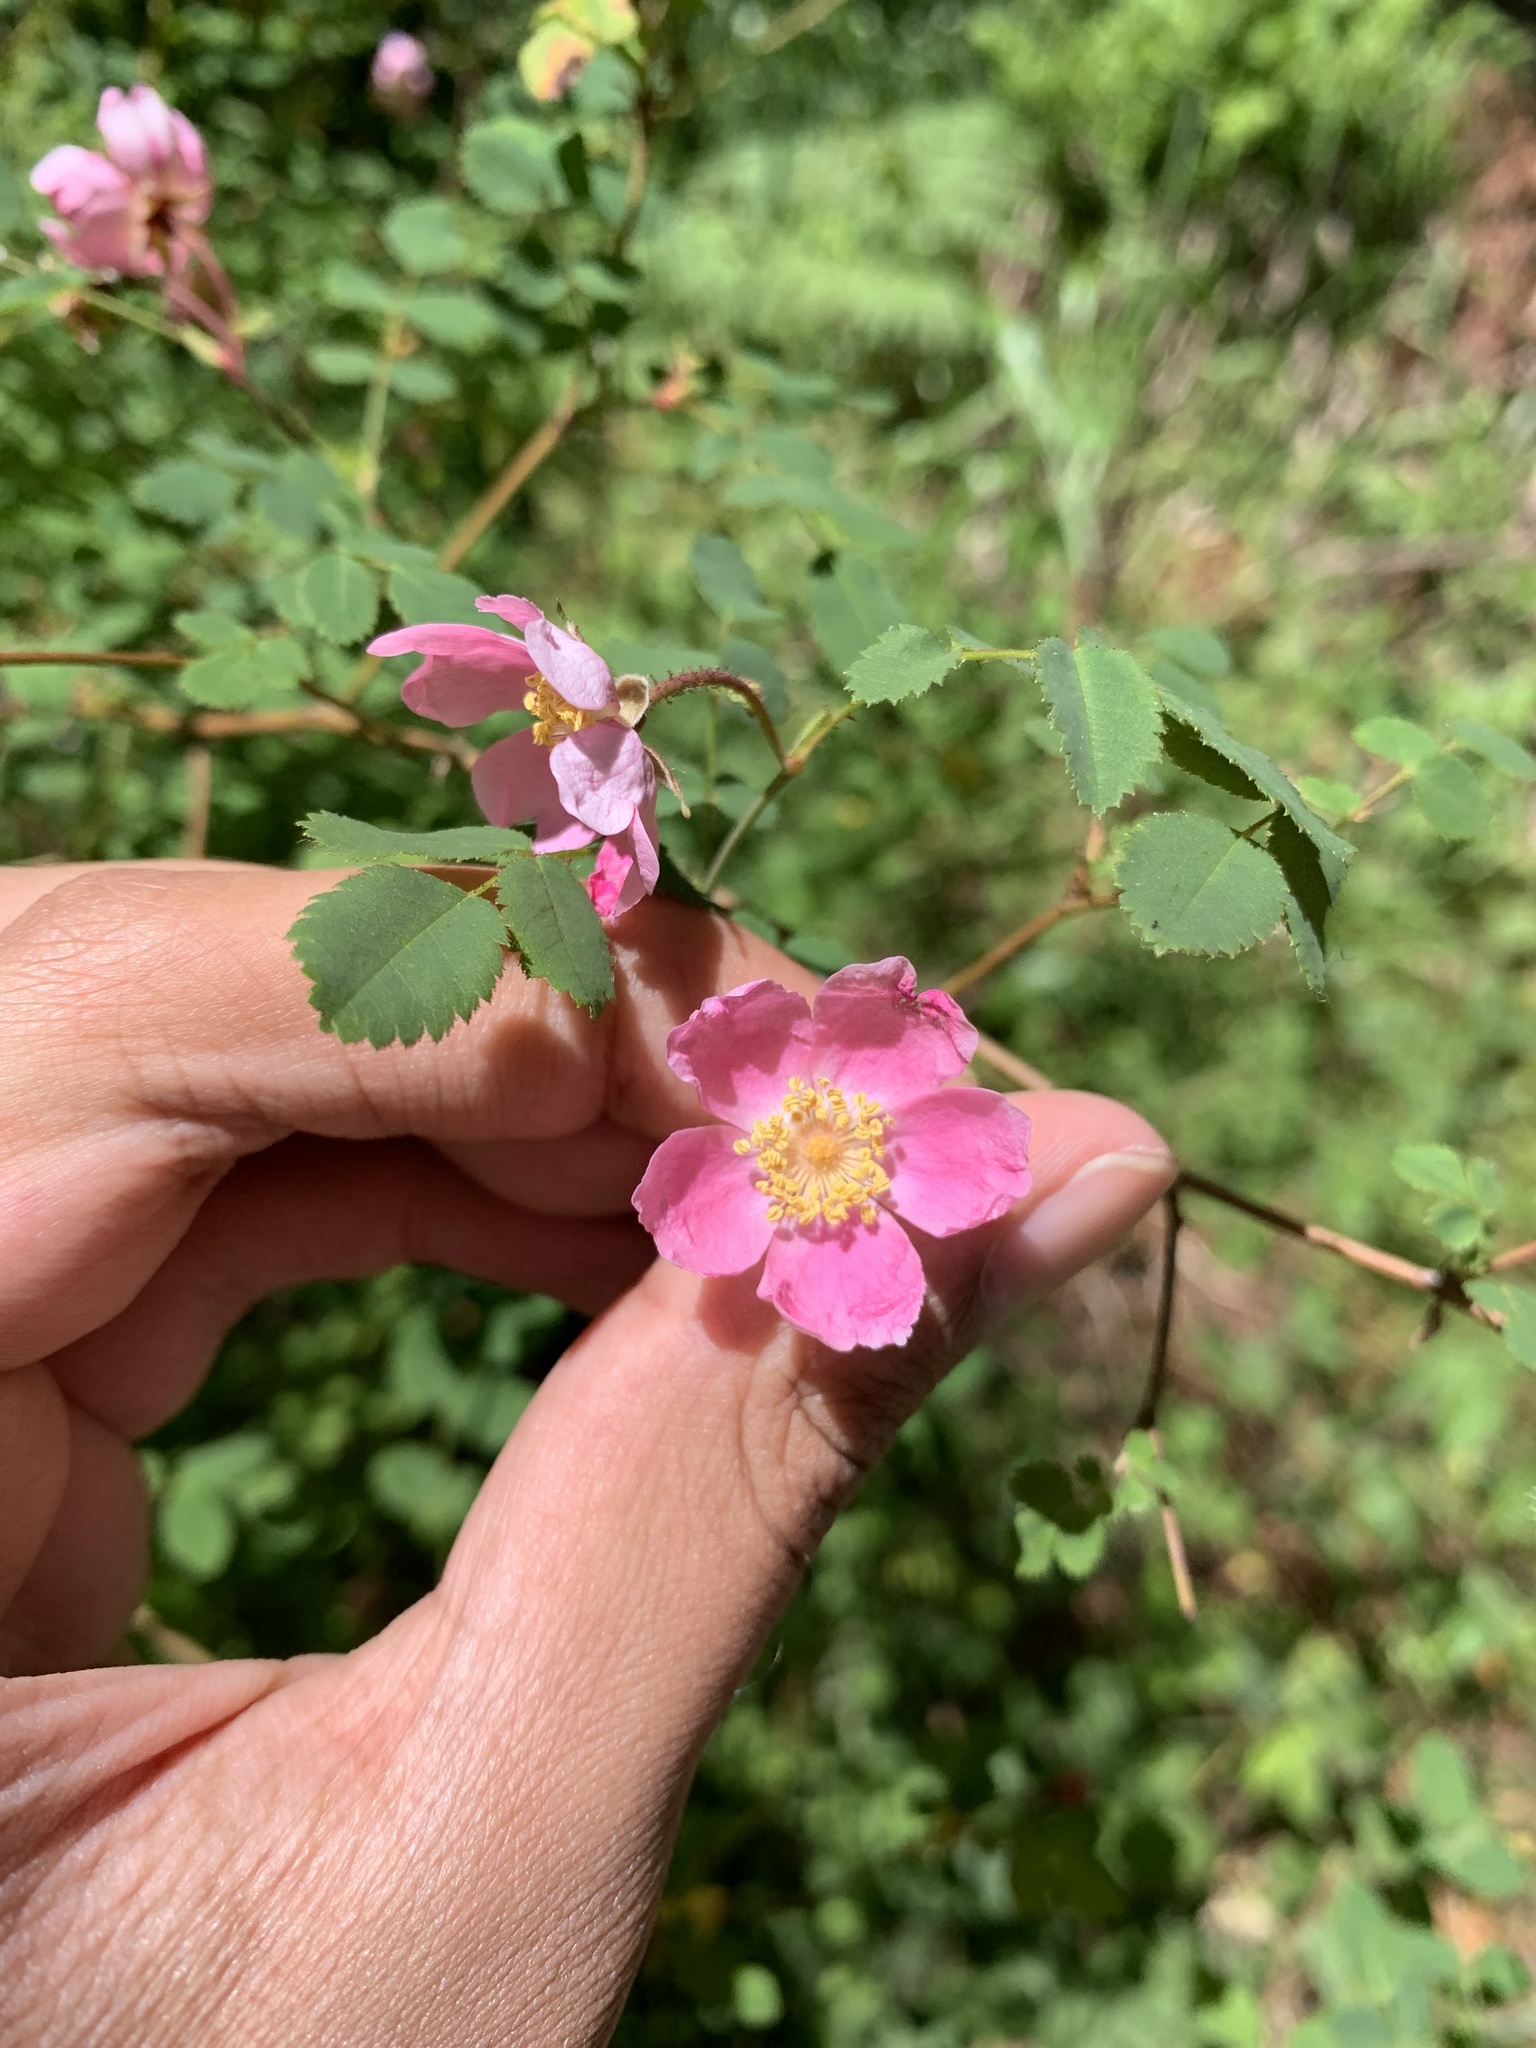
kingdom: Plantae
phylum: Tracheophyta
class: Magnoliopsida
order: Rosales
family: Rosaceae
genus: Rosa
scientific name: Rosa gymnocarpa
